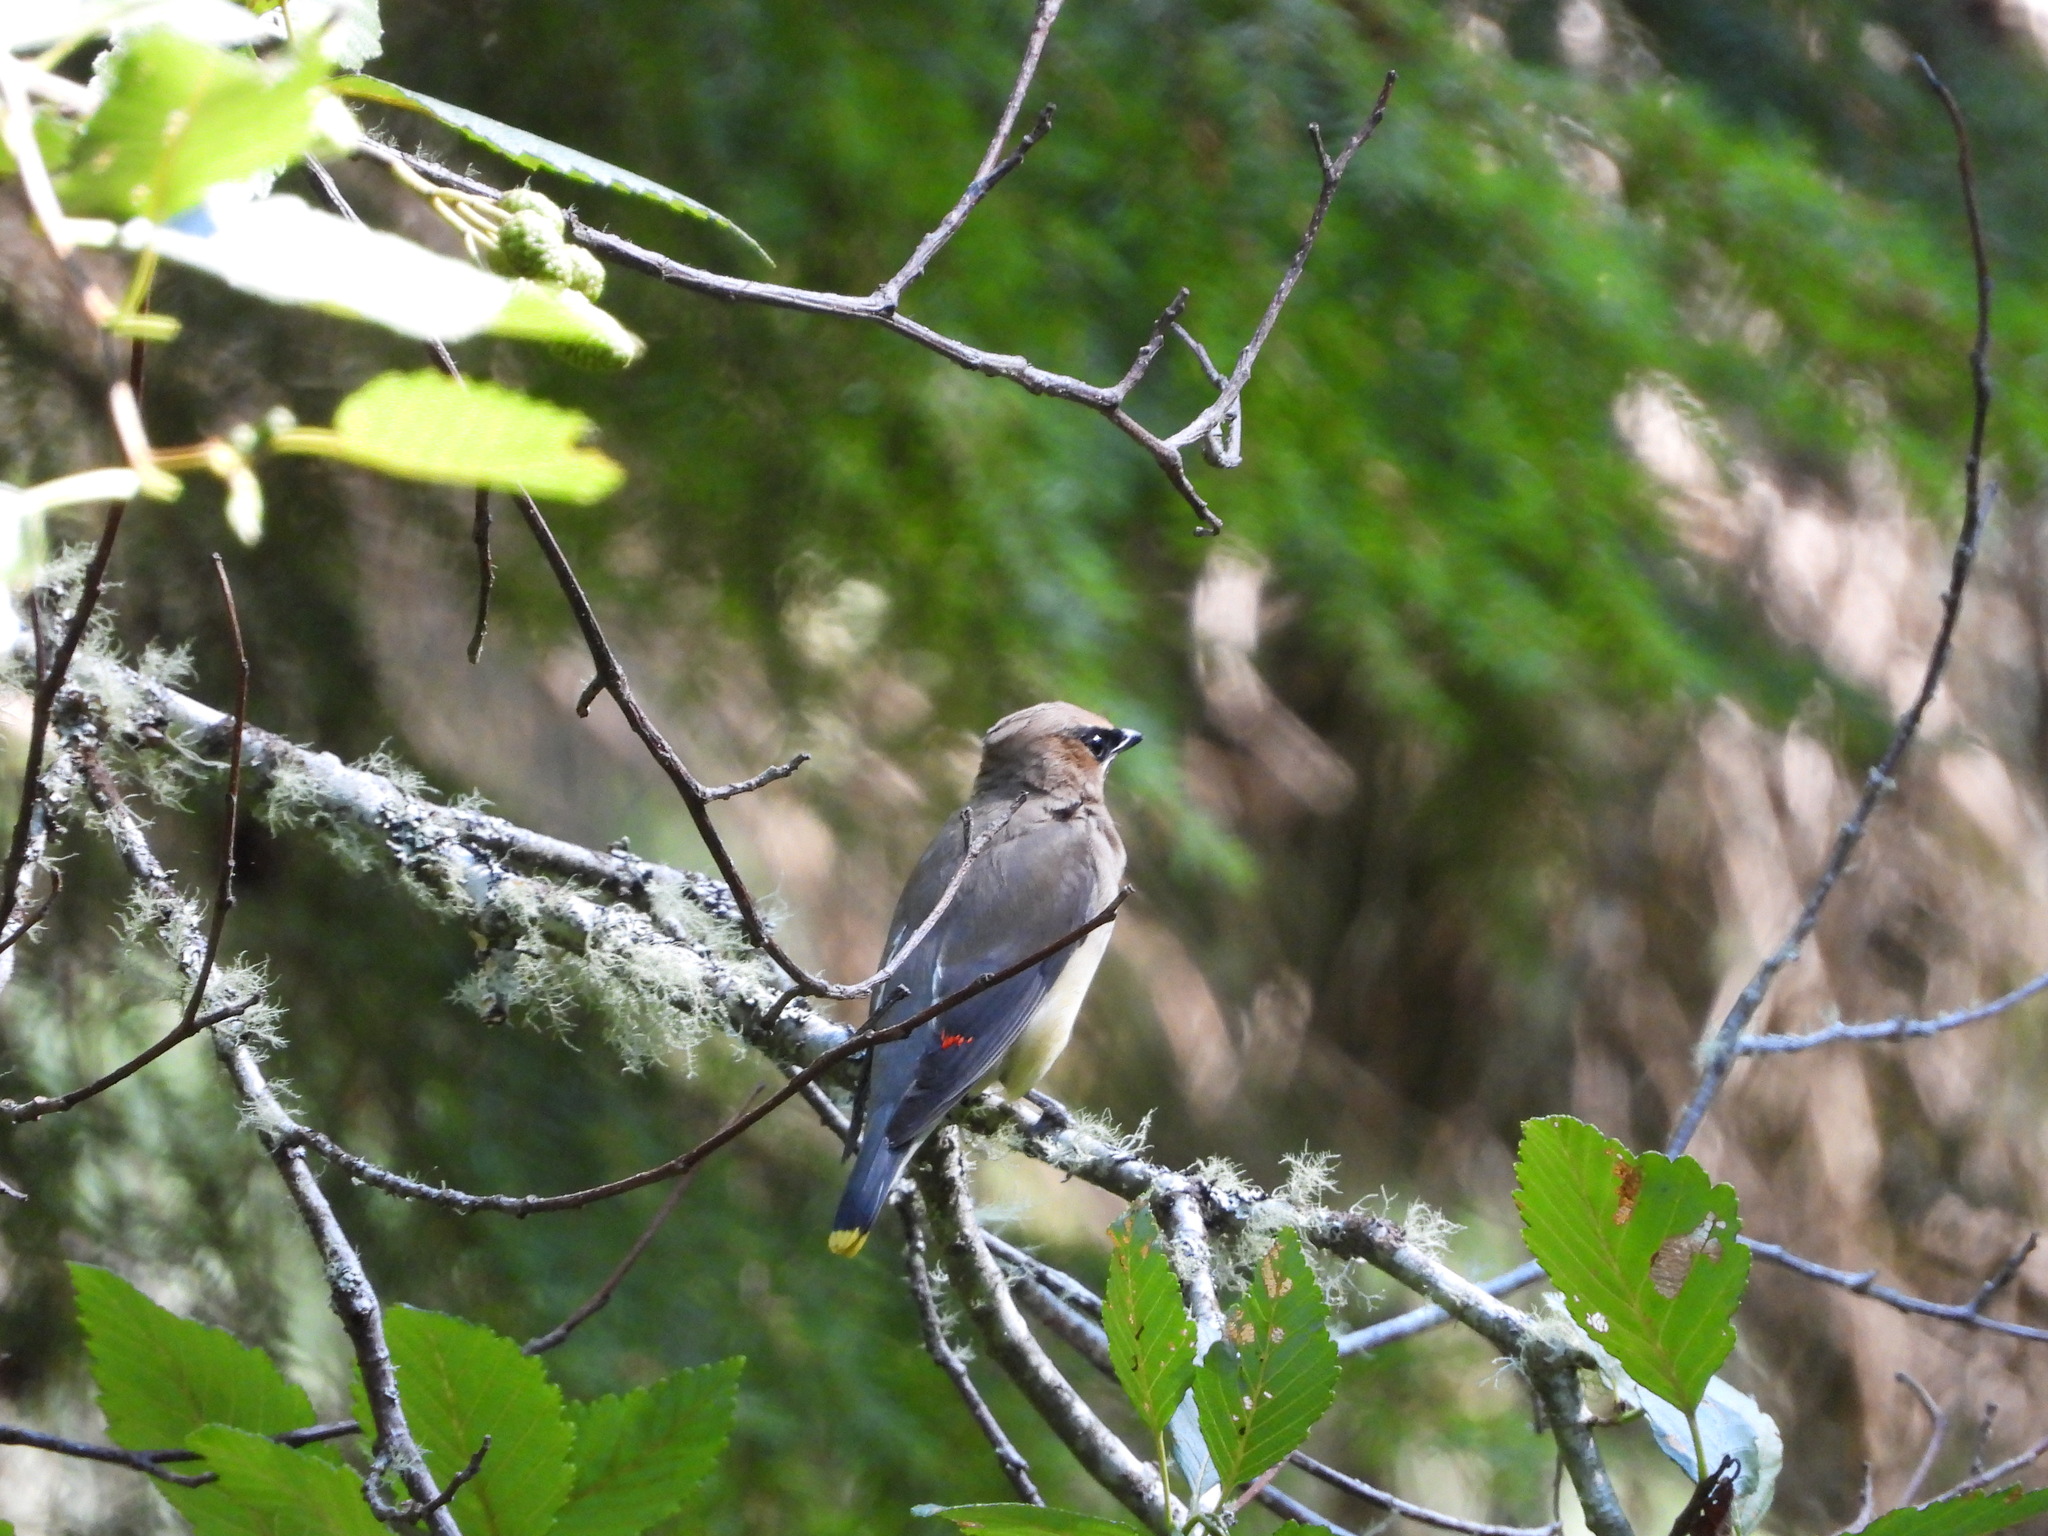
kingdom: Animalia
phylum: Chordata
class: Aves
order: Passeriformes
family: Bombycillidae
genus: Bombycilla
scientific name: Bombycilla cedrorum
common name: Cedar waxwing
